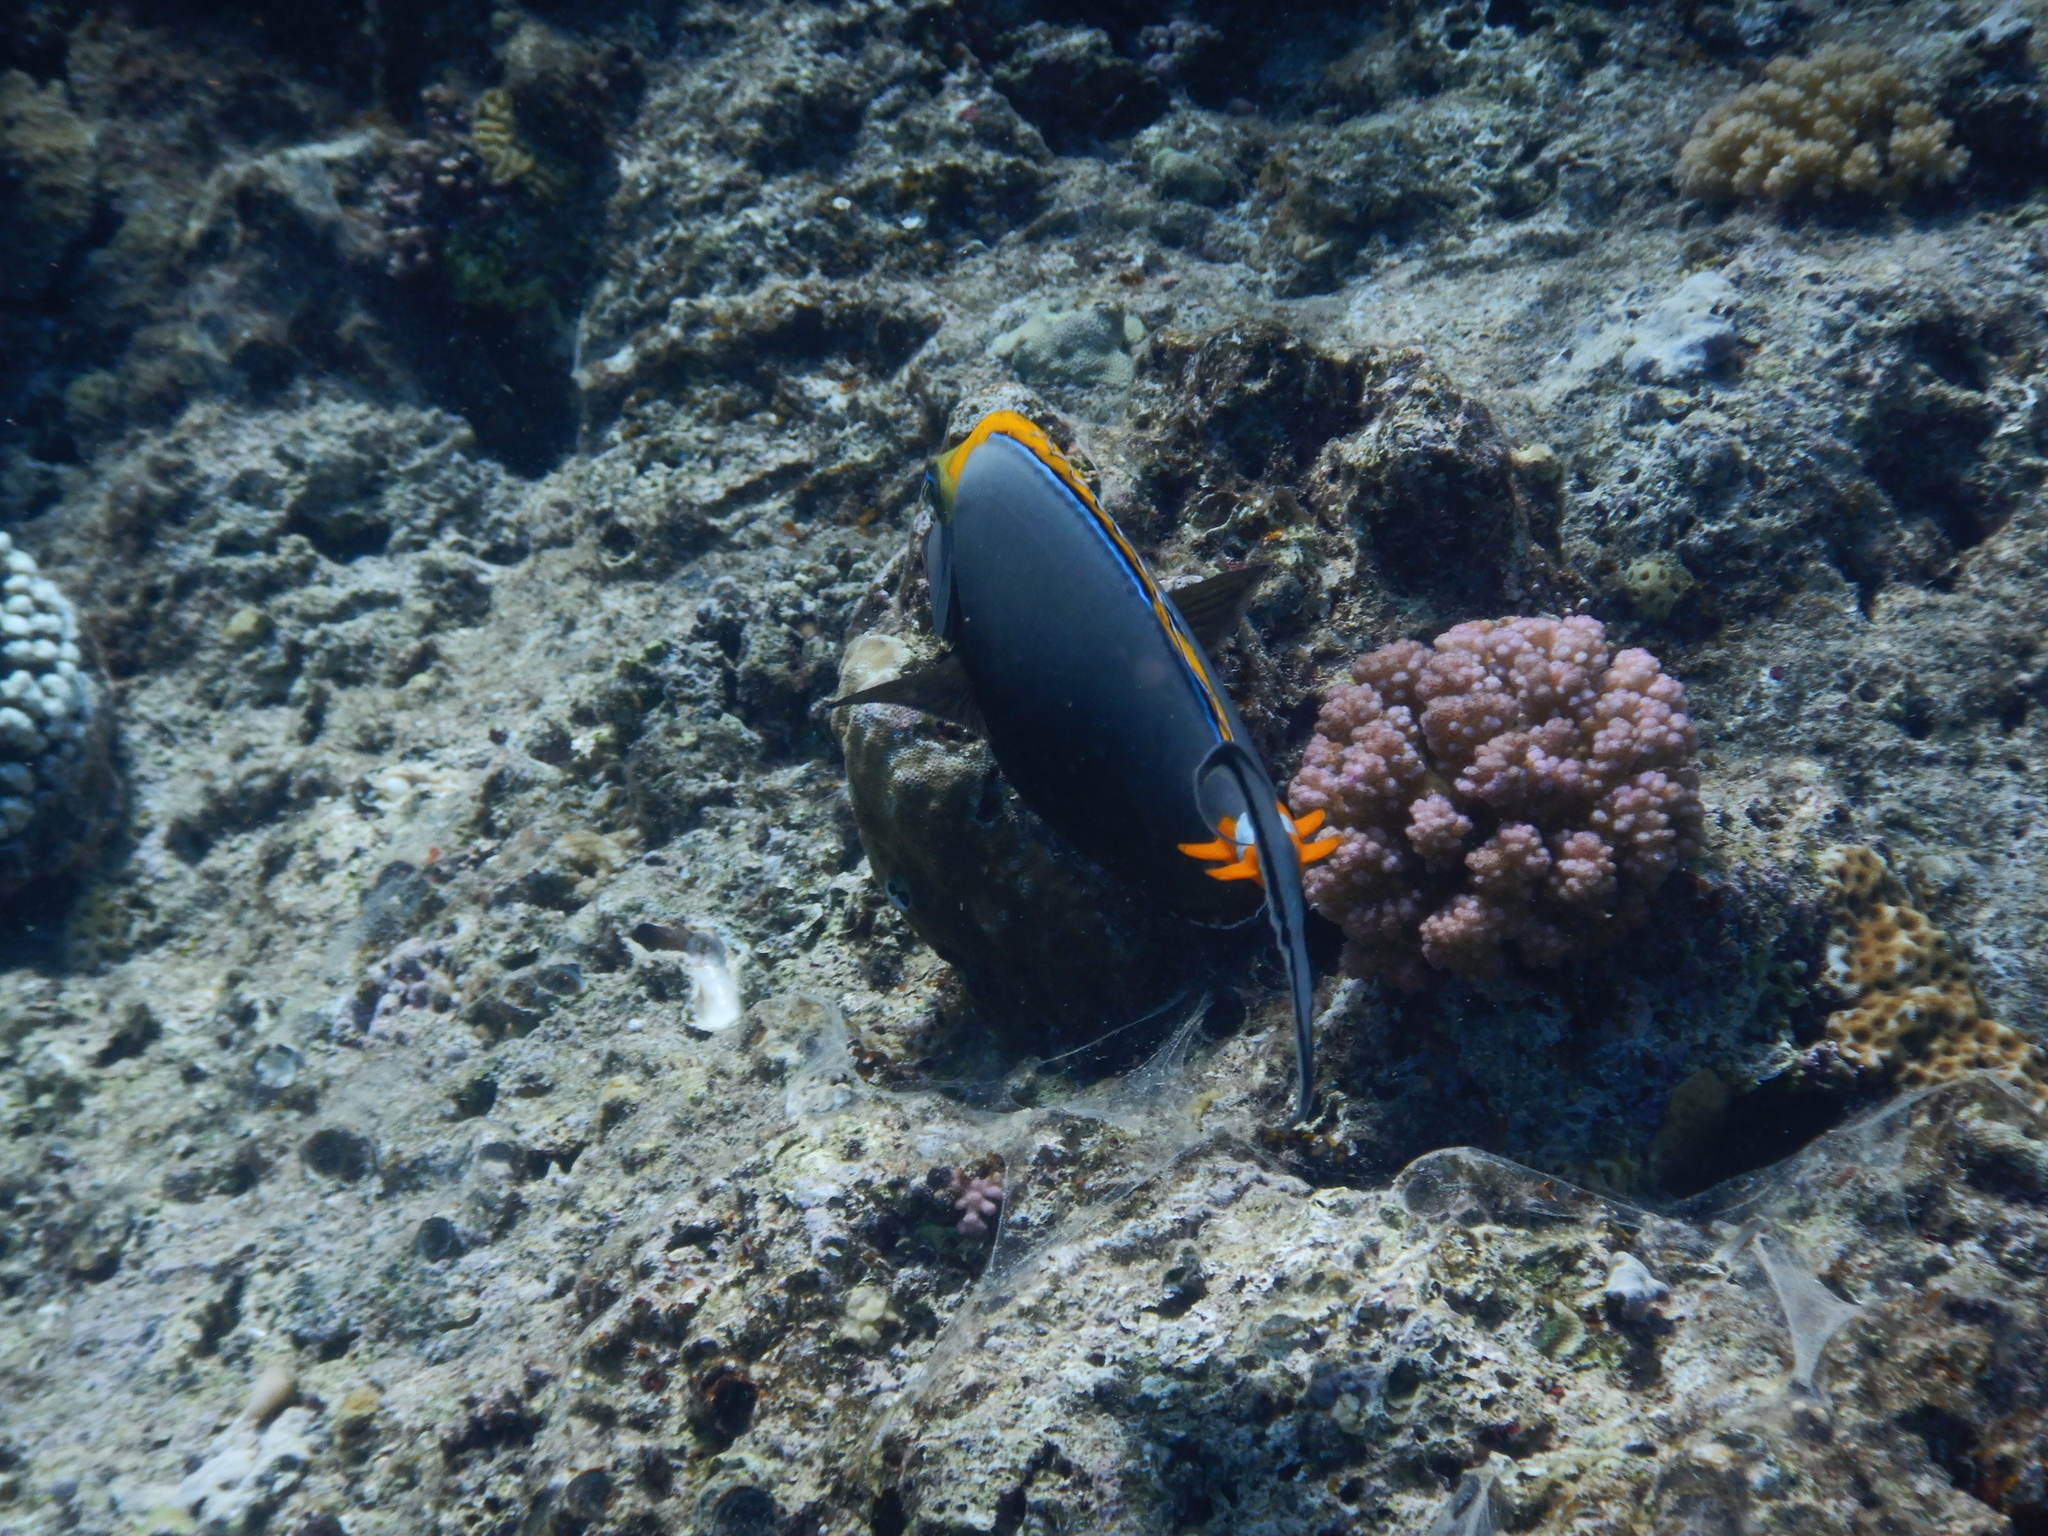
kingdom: Animalia
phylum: Chordata
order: Perciformes
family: Acanthuridae
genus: Naso
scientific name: Naso elegans
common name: Orangespine unicornfish
